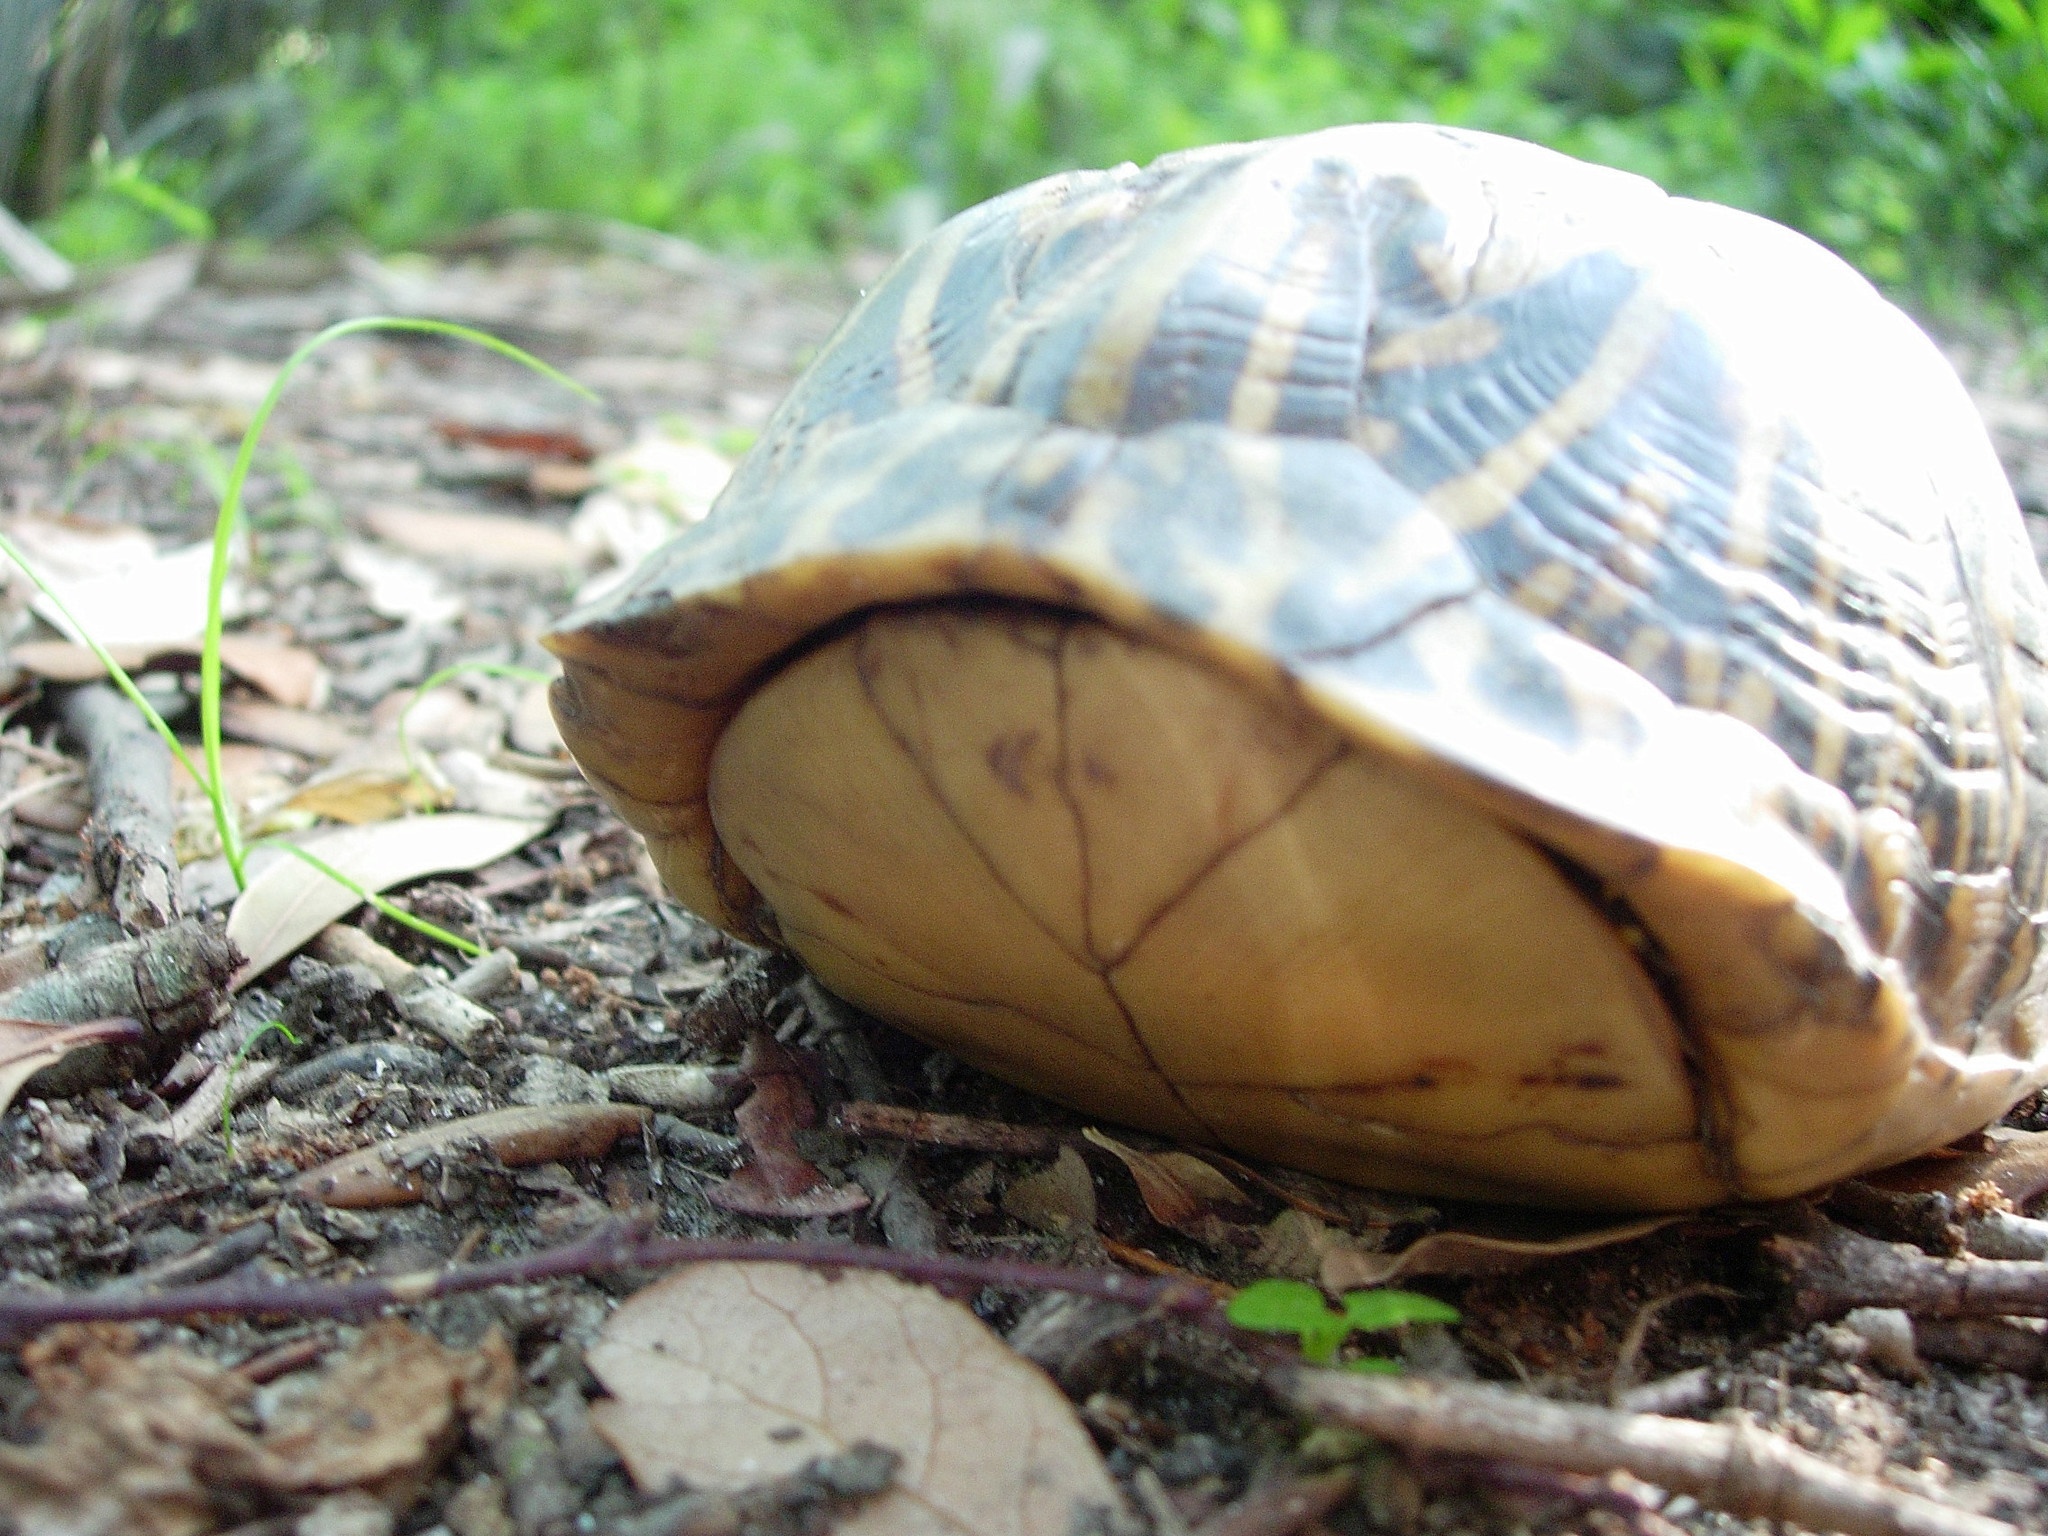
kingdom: Animalia
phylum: Chordata
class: Testudines
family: Emydidae
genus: Terrapene
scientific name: Terrapene carolina
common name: Common box turtle
